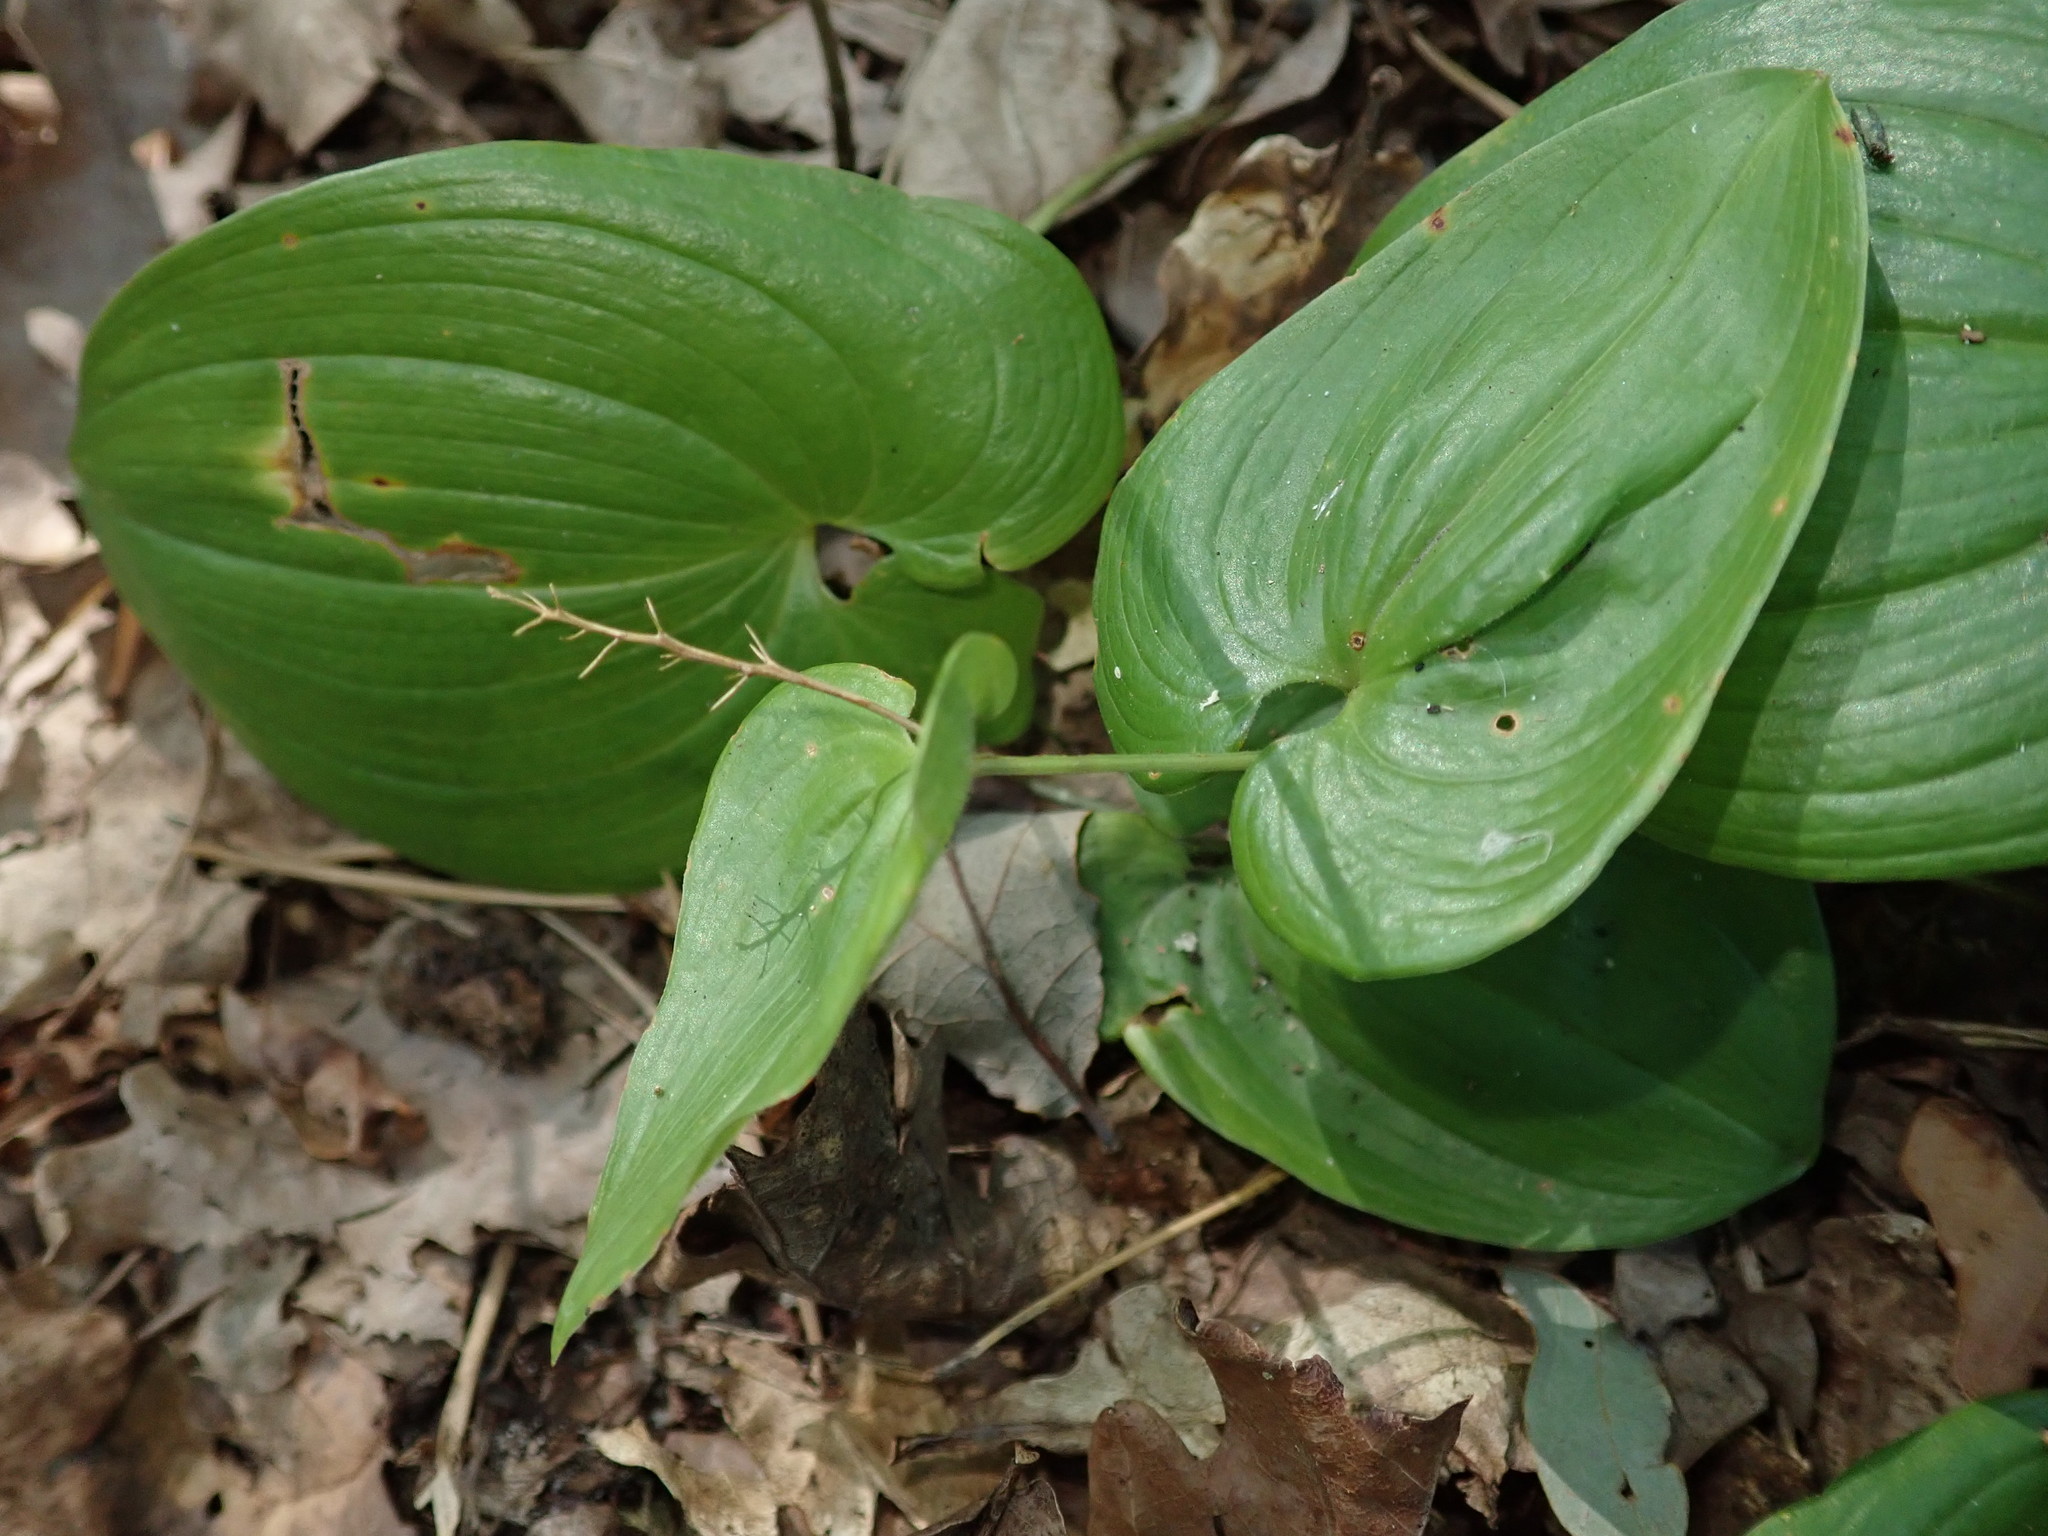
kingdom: Plantae
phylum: Tracheophyta
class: Liliopsida
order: Asparagales
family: Asparagaceae
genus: Maianthemum
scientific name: Maianthemum bifolium
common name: May lily
